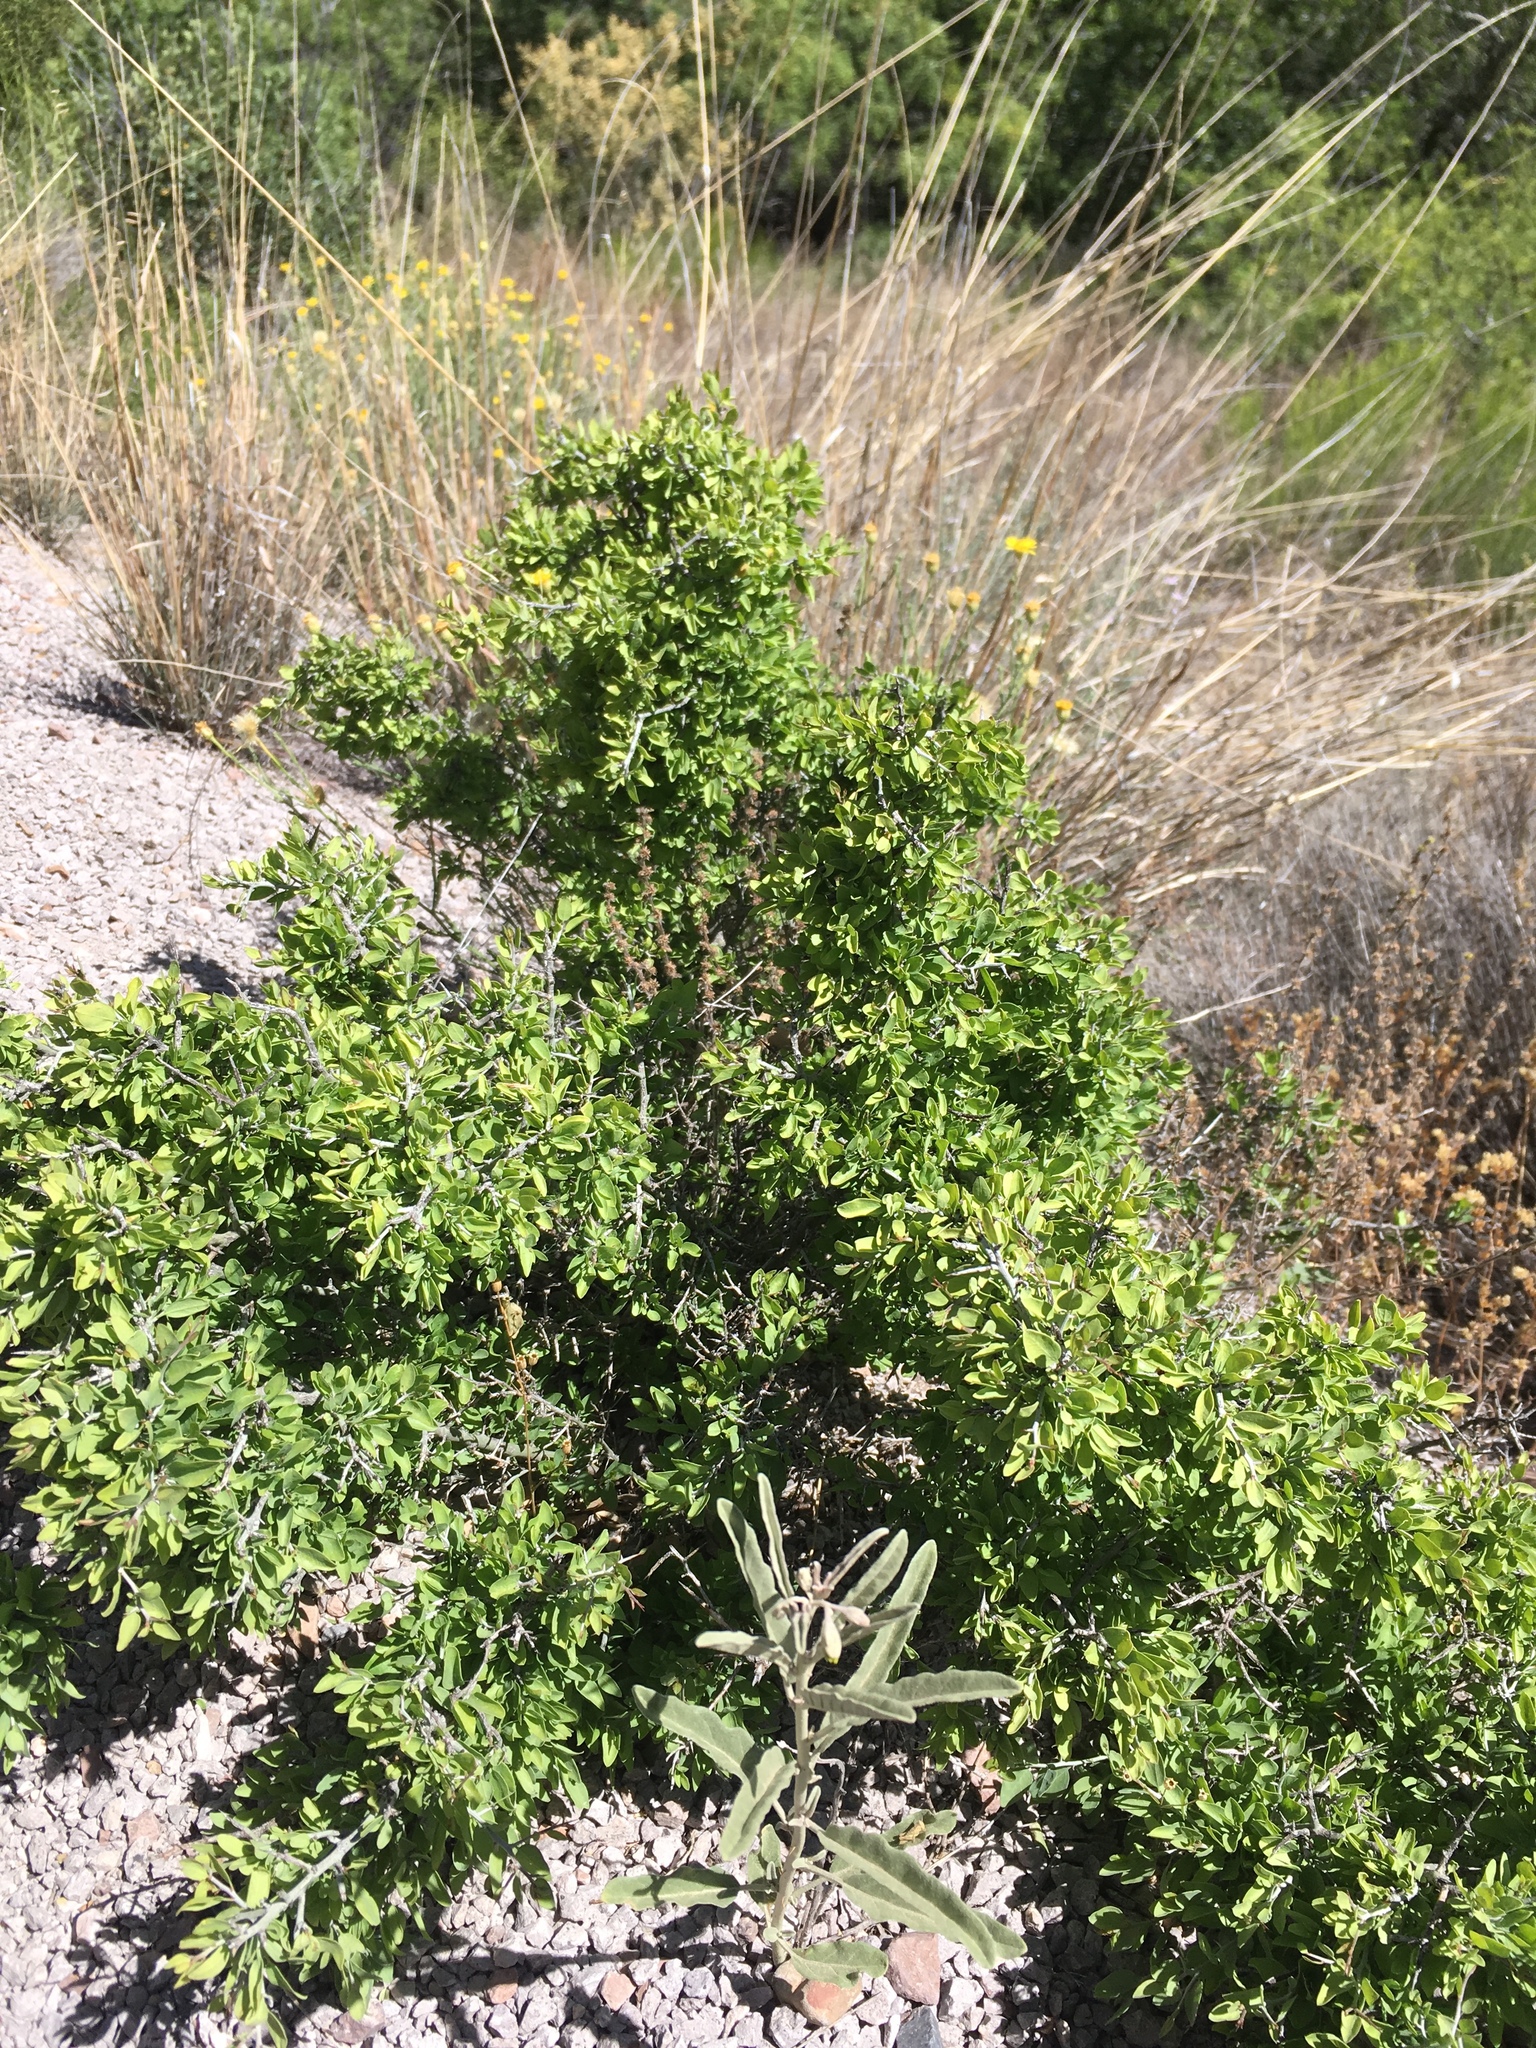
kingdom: Plantae
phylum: Tracheophyta
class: Magnoliopsida
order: Rosales
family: Rhamnaceae
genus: Sarcomphalus
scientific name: Sarcomphalus obtusifolius
